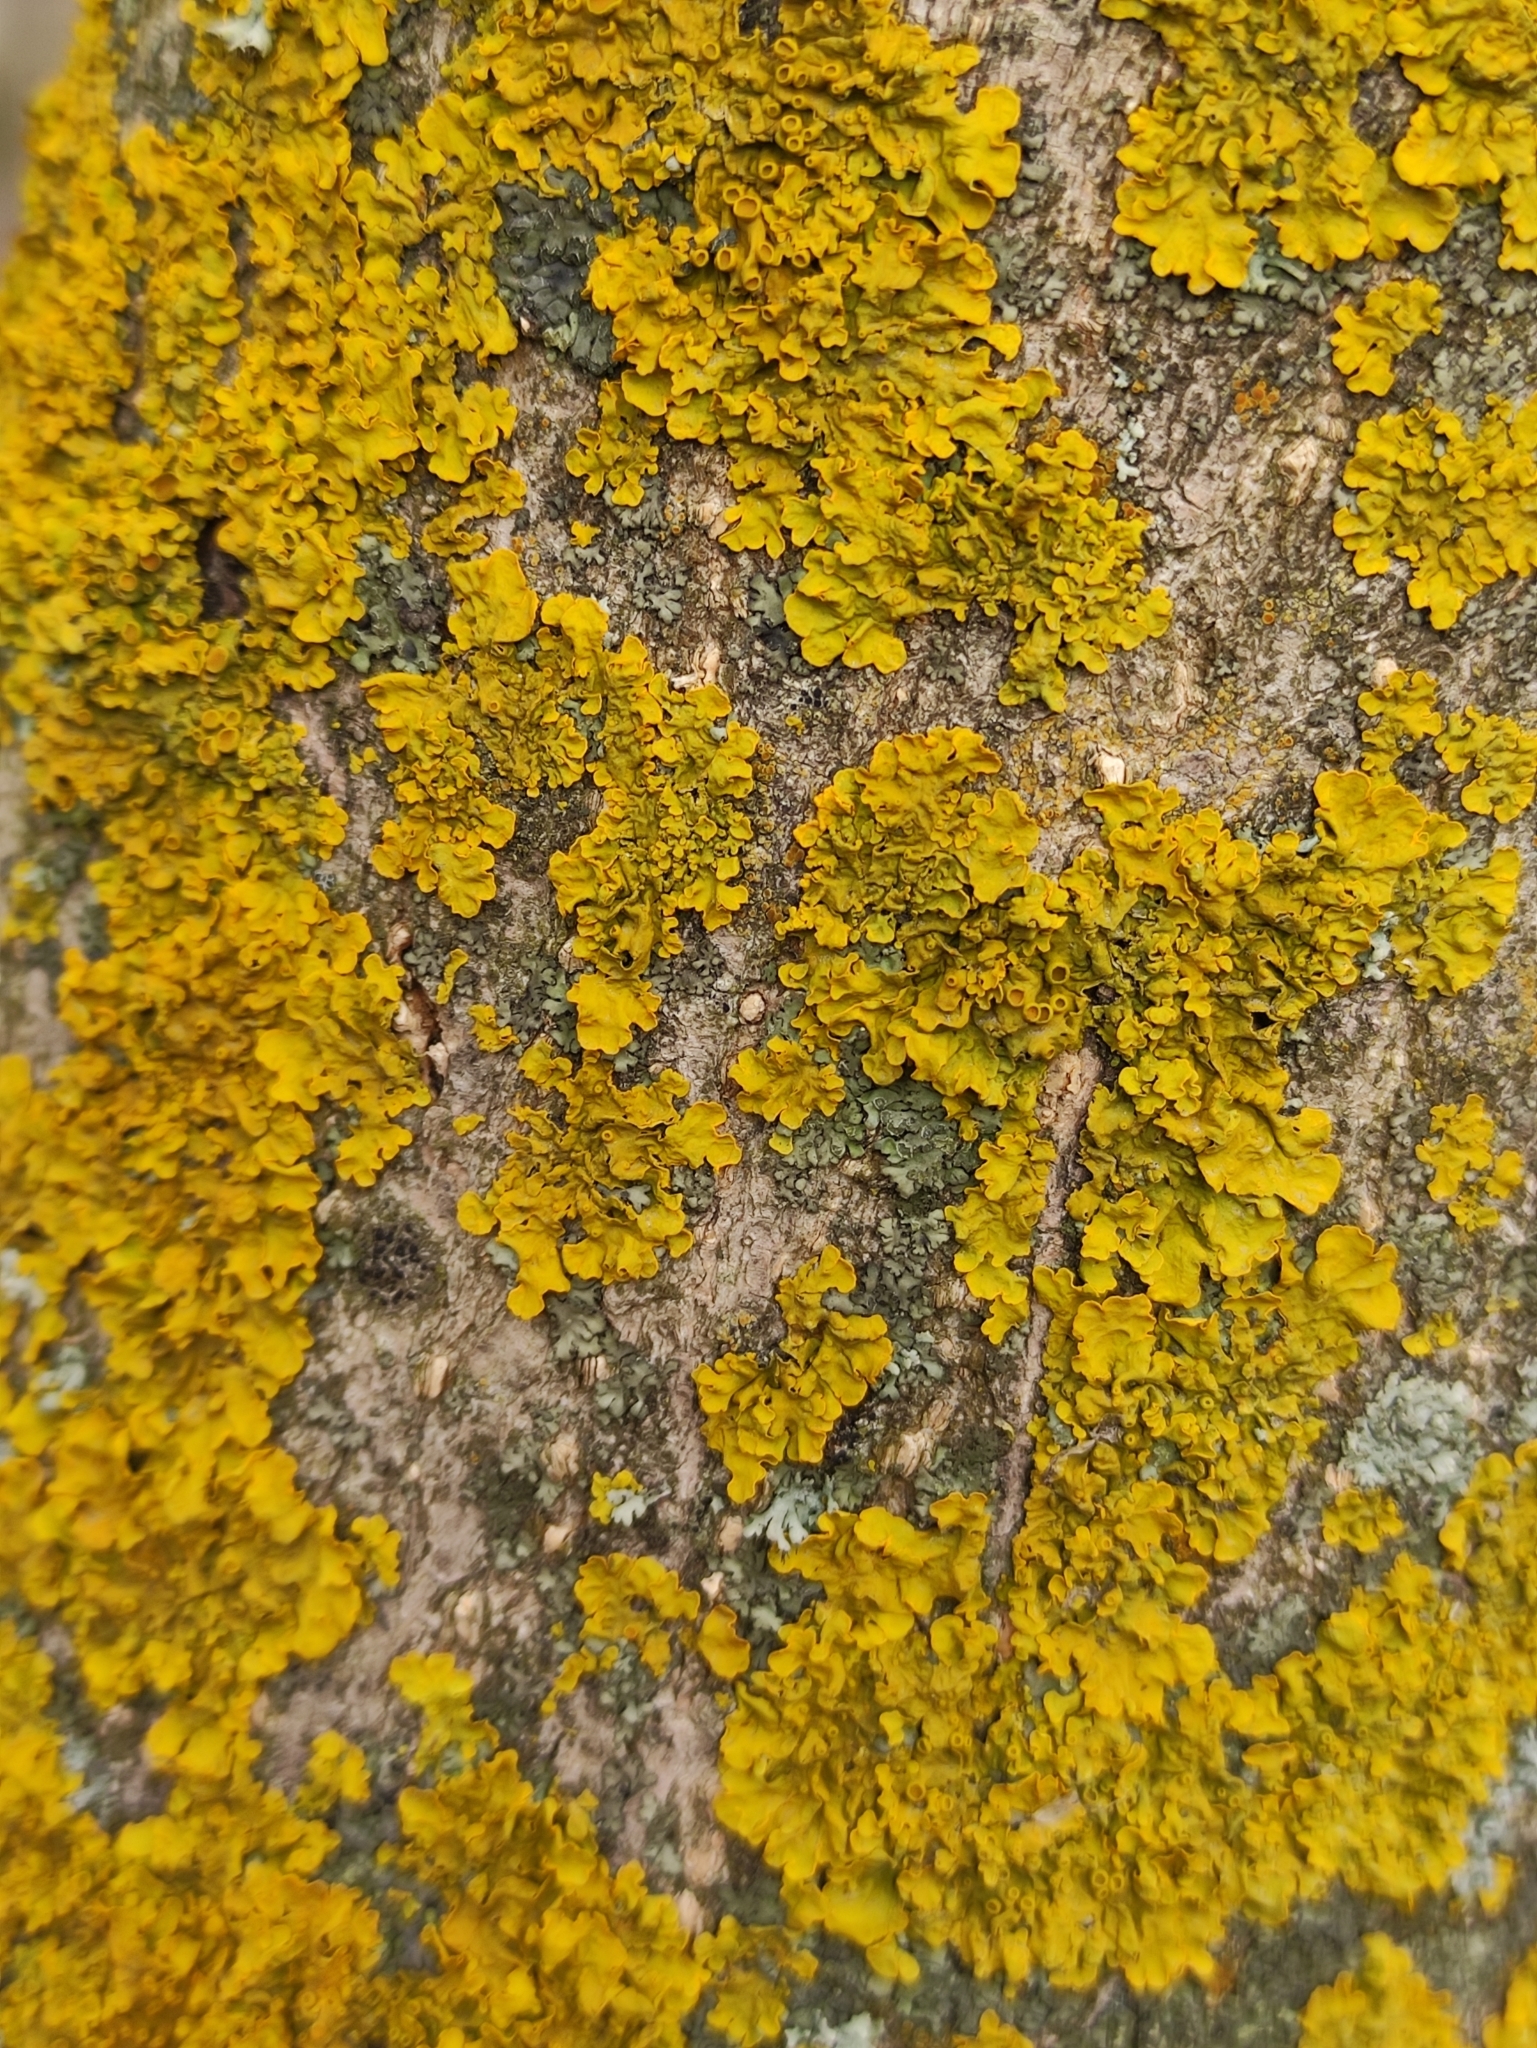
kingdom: Fungi
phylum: Ascomycota
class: Lecanoromycetes
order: Teloschistales
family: Teloschistaceae
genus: Xanthoria
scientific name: Xanthoria parietina
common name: Common orange lichen
